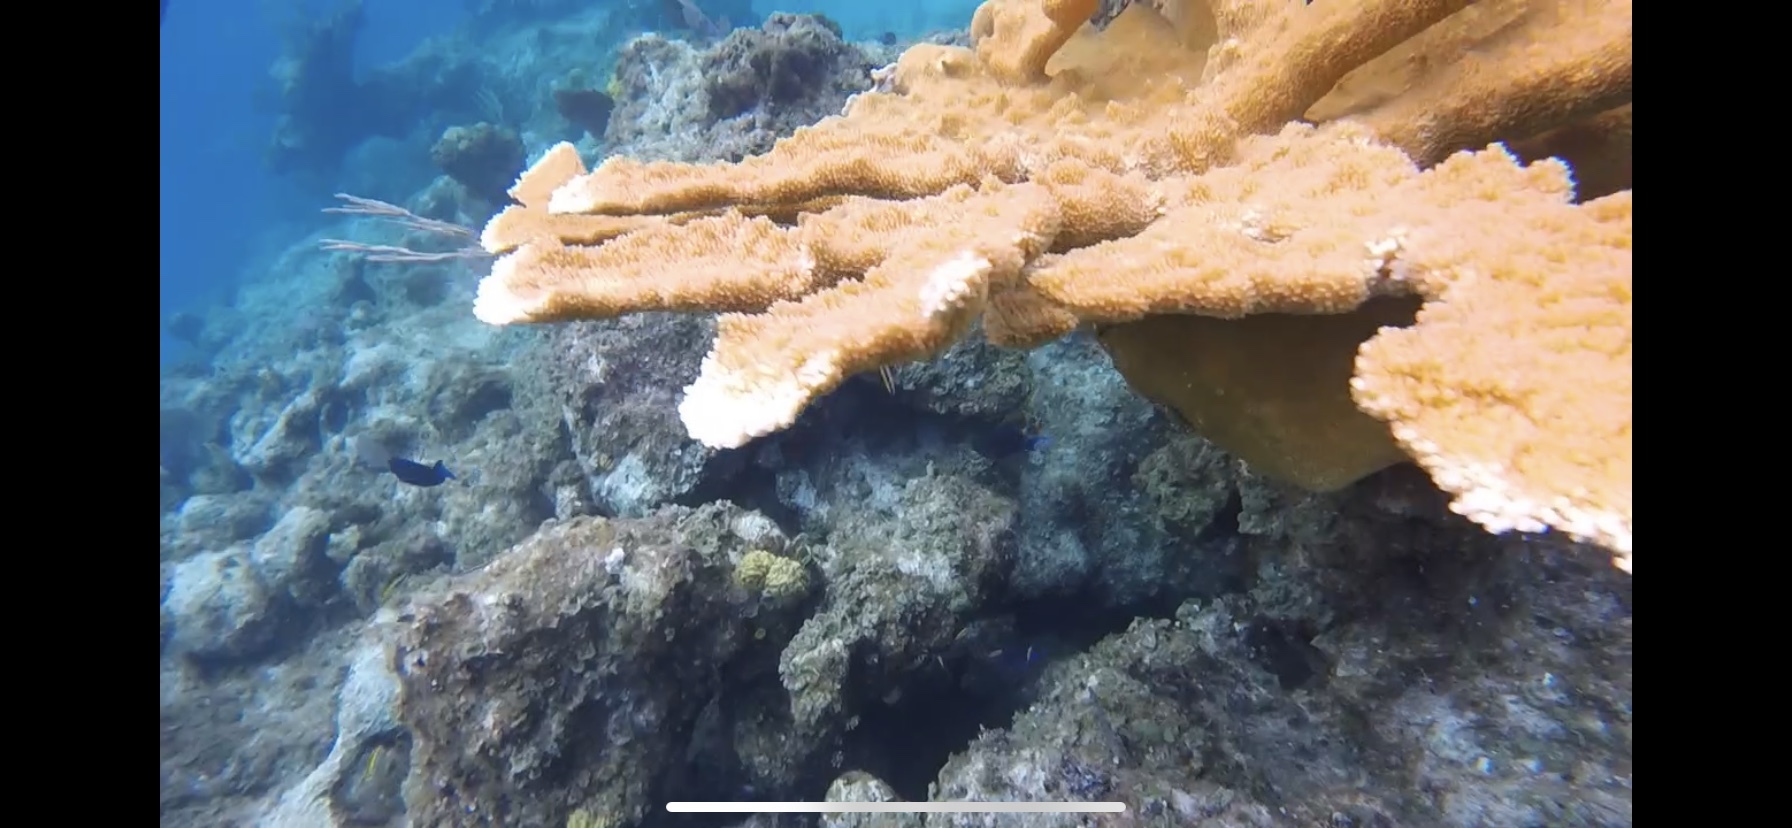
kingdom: Animalia
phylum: Cnidaria
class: Anthozoa
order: Scleractinia
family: Acroporidae
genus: Acropora
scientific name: Acropora palmata
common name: Elkhorn coral
